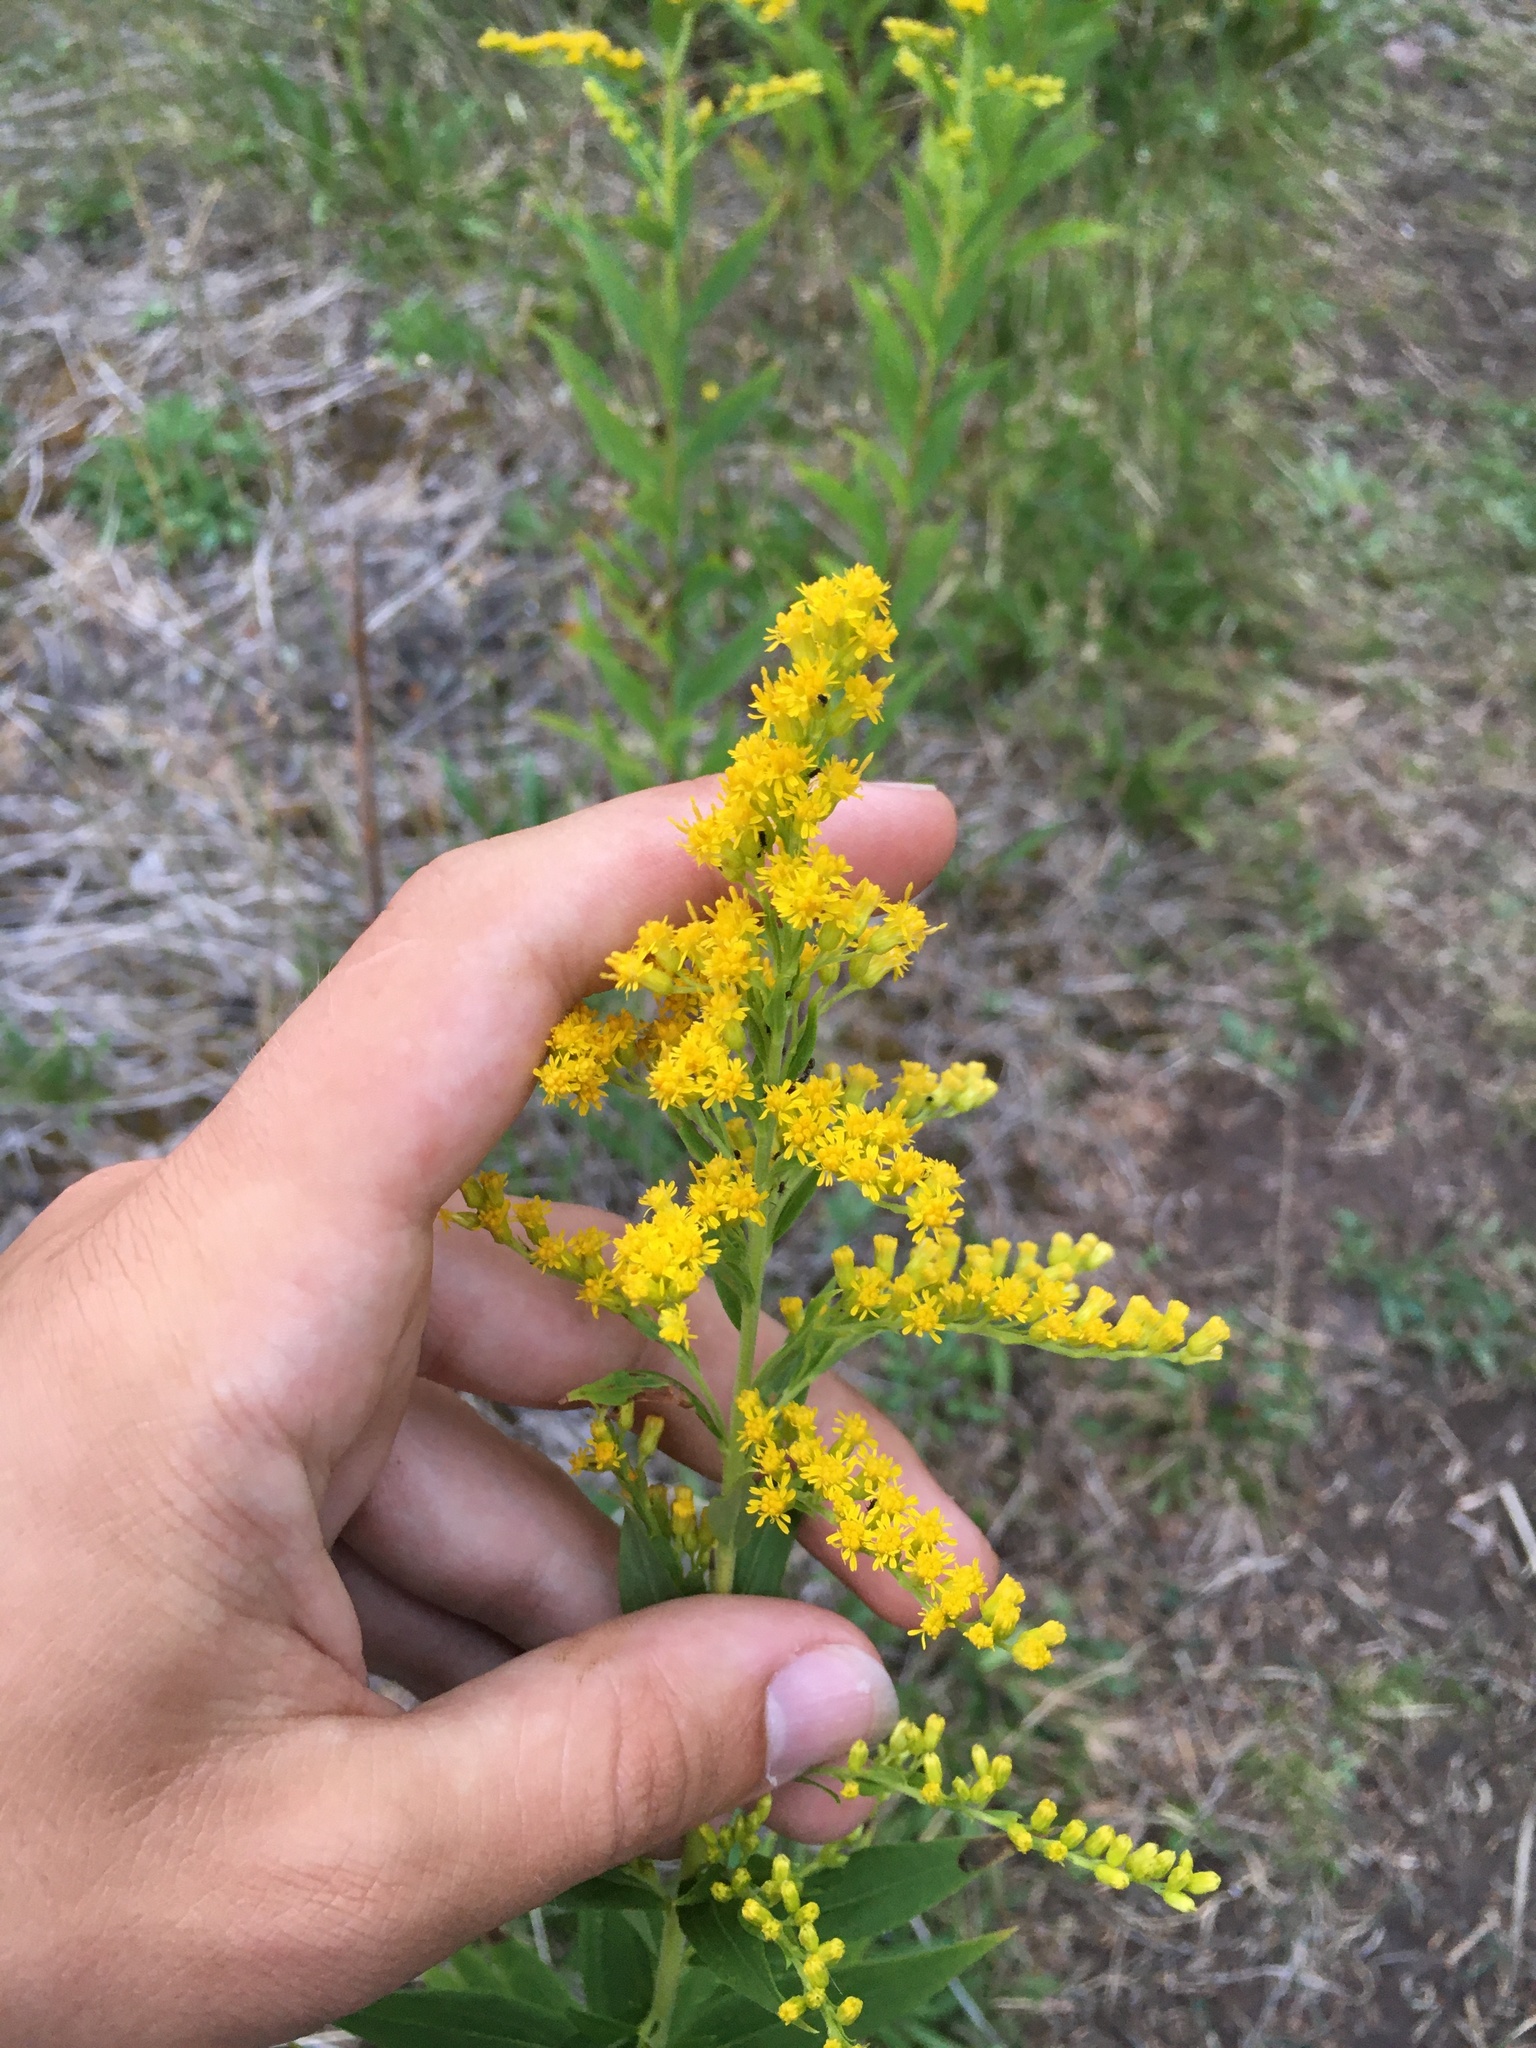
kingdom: Plantae
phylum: Tracheophyta
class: Magnoliopsida
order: Asterales
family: Asteraceae
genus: Solidago
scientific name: Solidago canadensis
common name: Canada goldenrod
